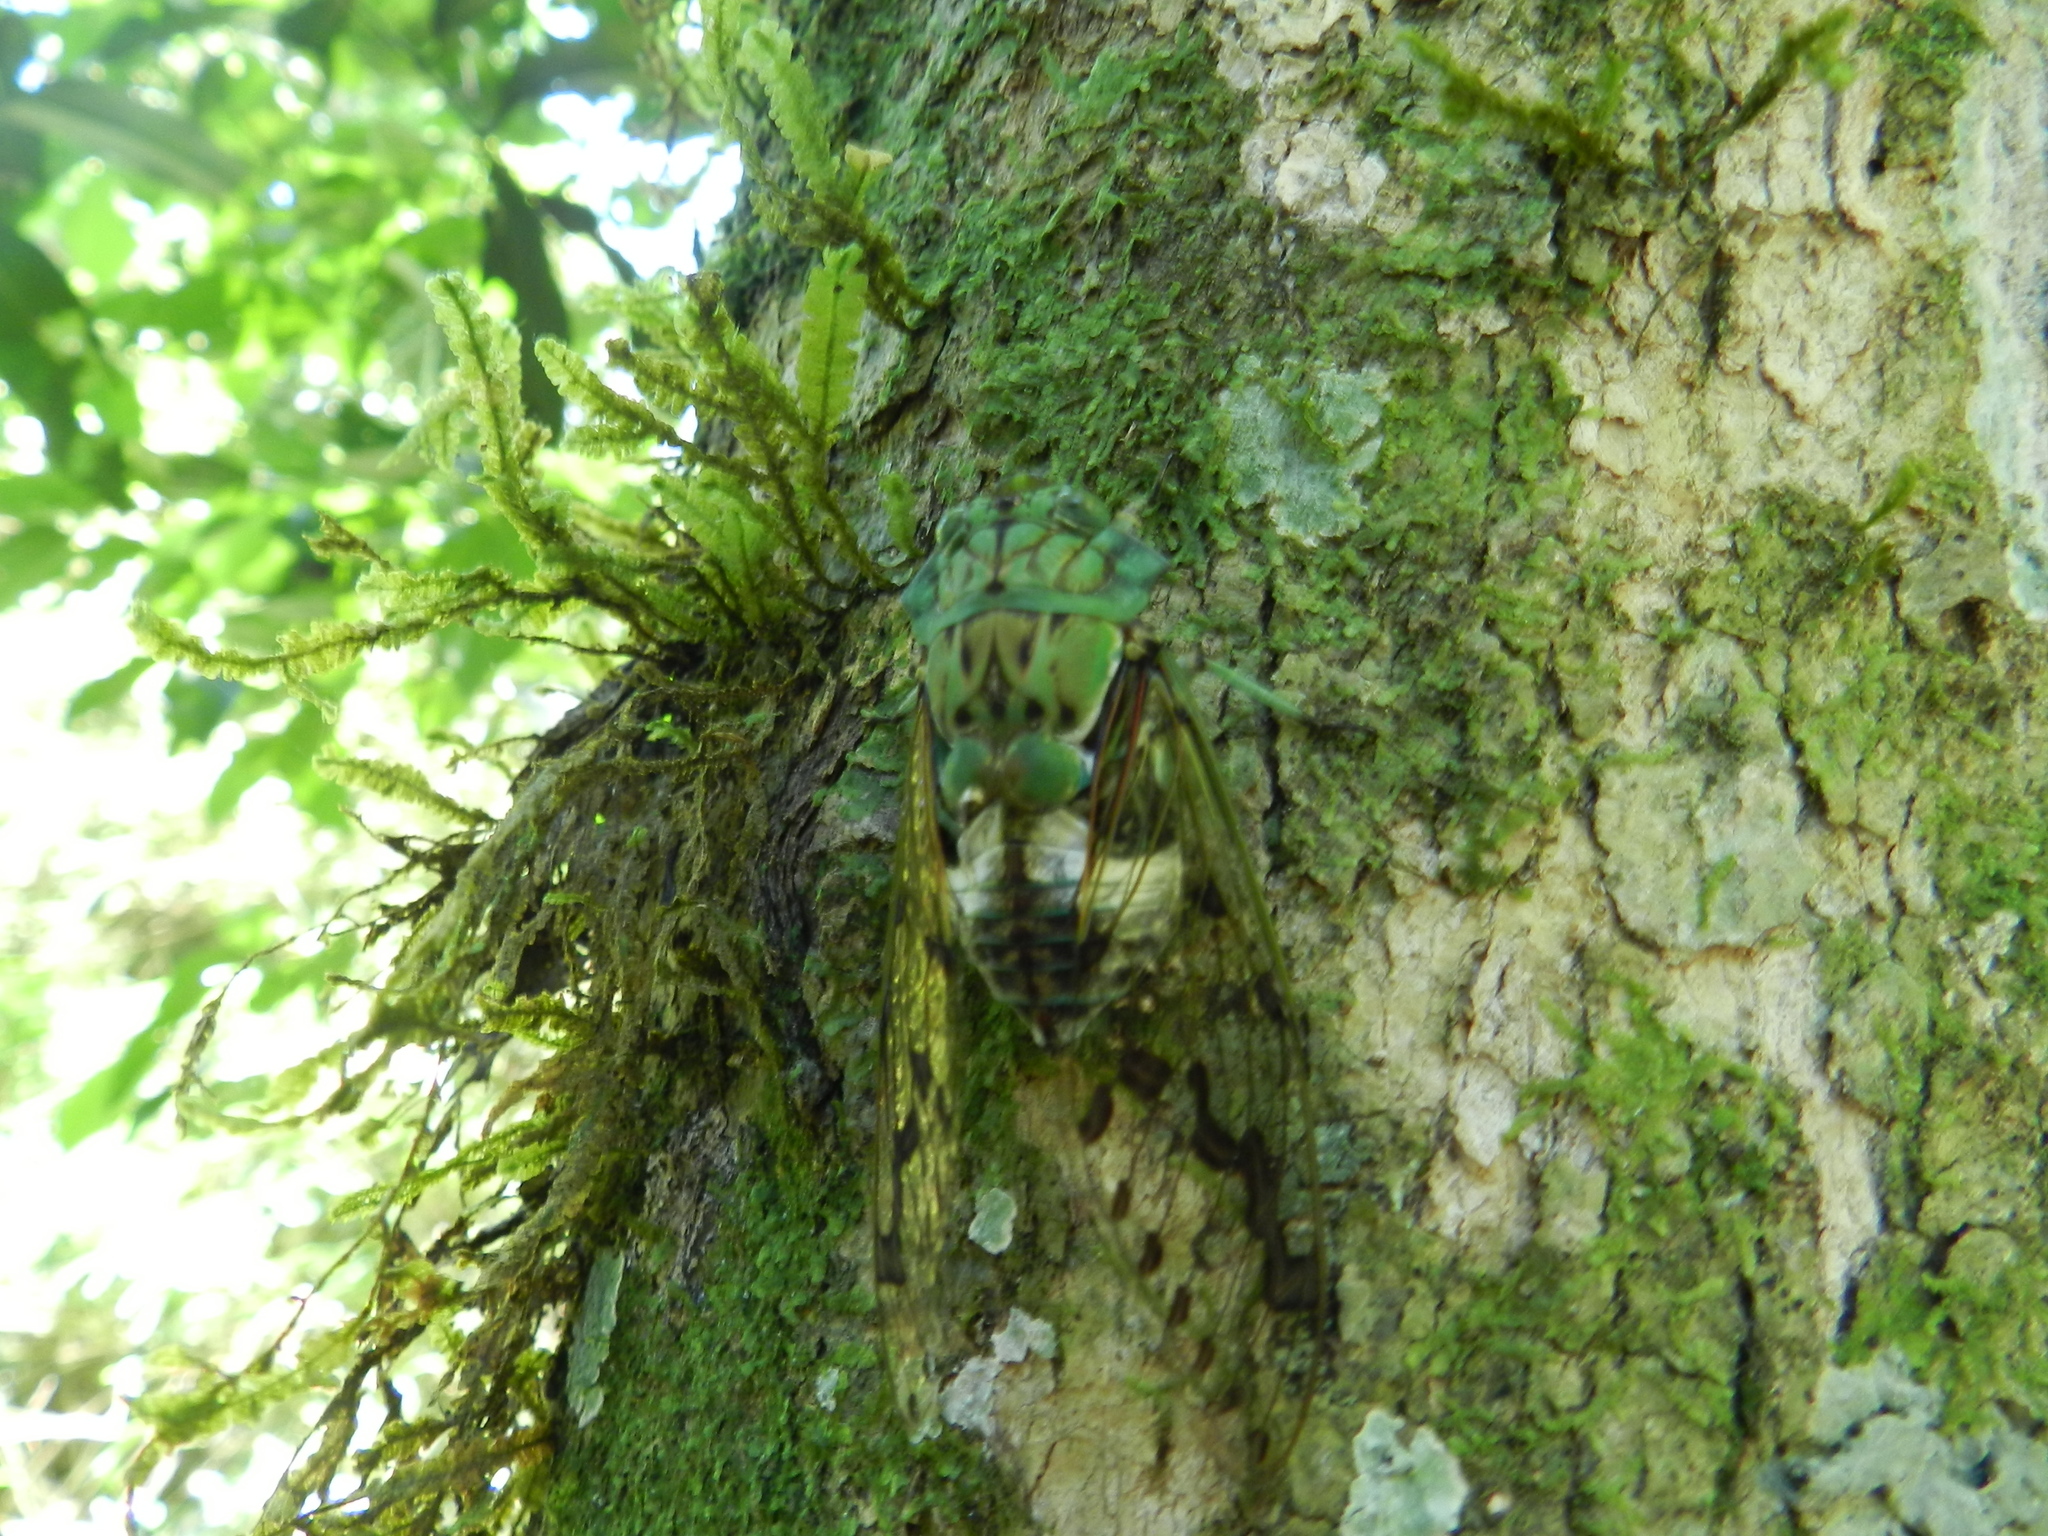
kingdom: Animalia
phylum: Arthropoda
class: Insecta
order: Hemiptera
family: Cicadidae
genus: Zammara
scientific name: Zammara tympanum
